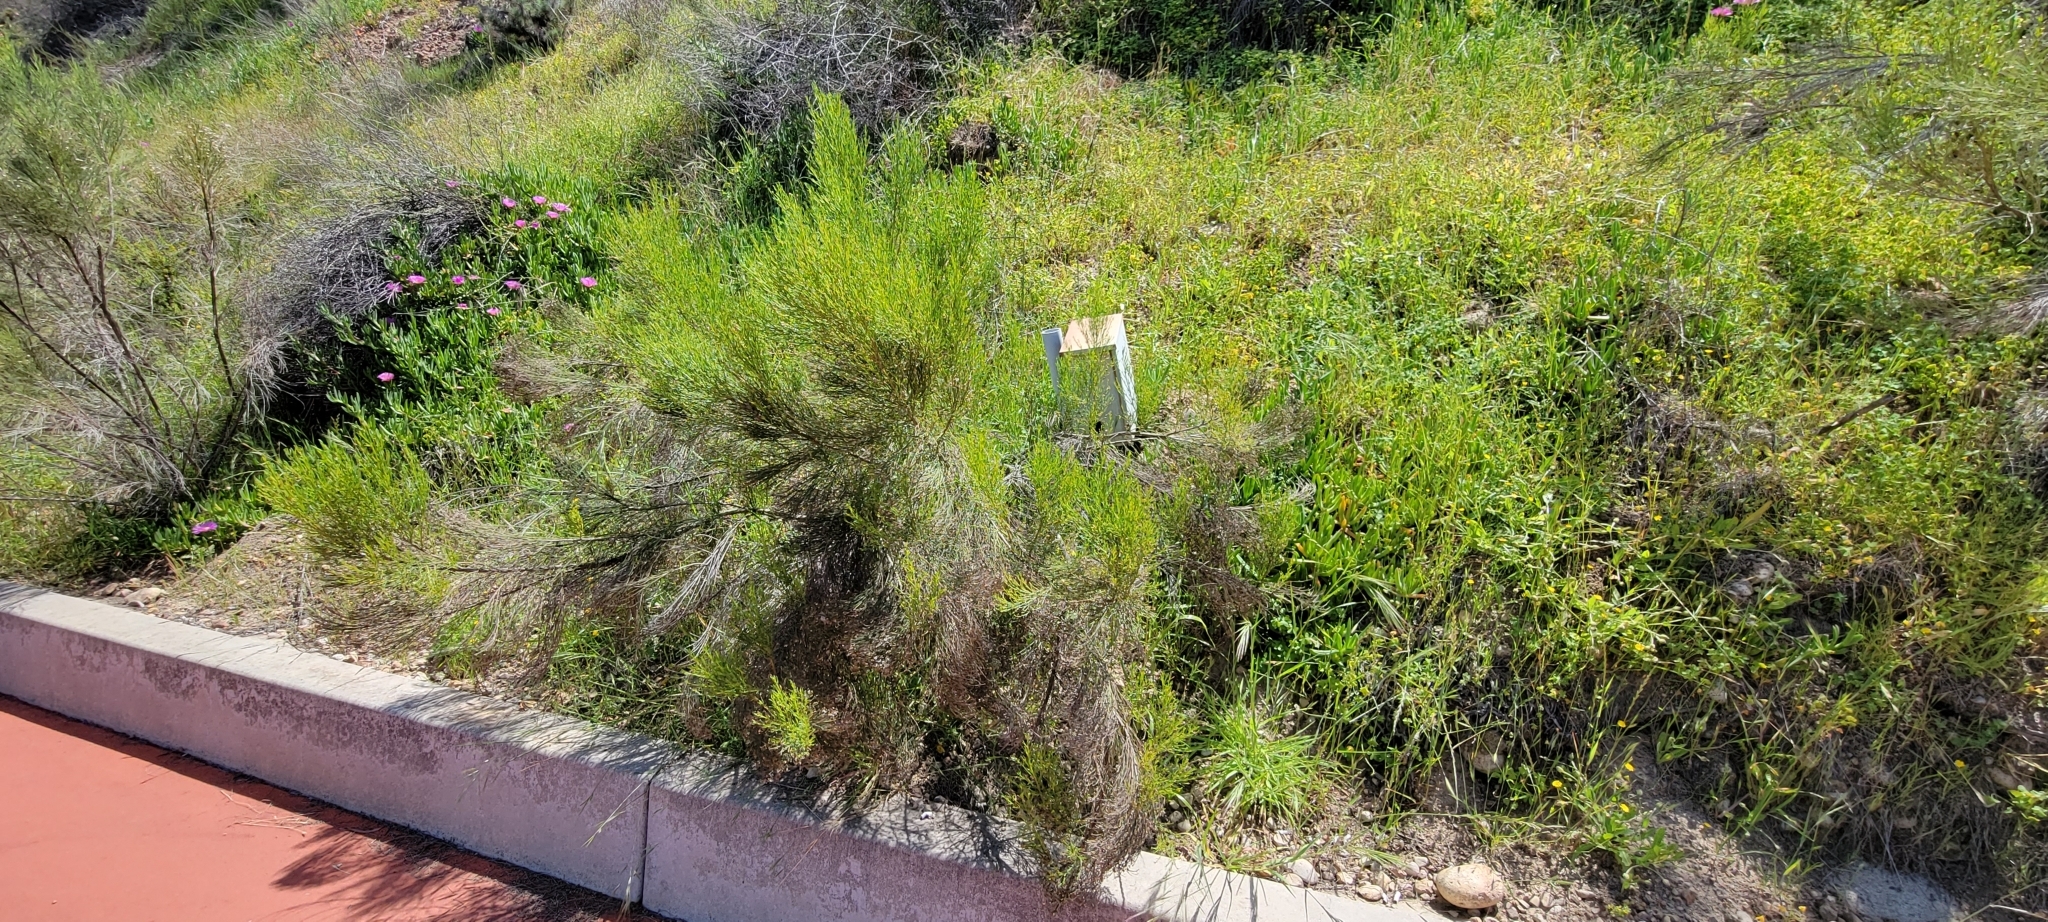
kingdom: Plantae
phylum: Tracheophyta
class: Magnoliopsida
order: Asterales
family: Asteraceae
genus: Baccharis
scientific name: Baccharis sarothroides
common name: Desert-broom
